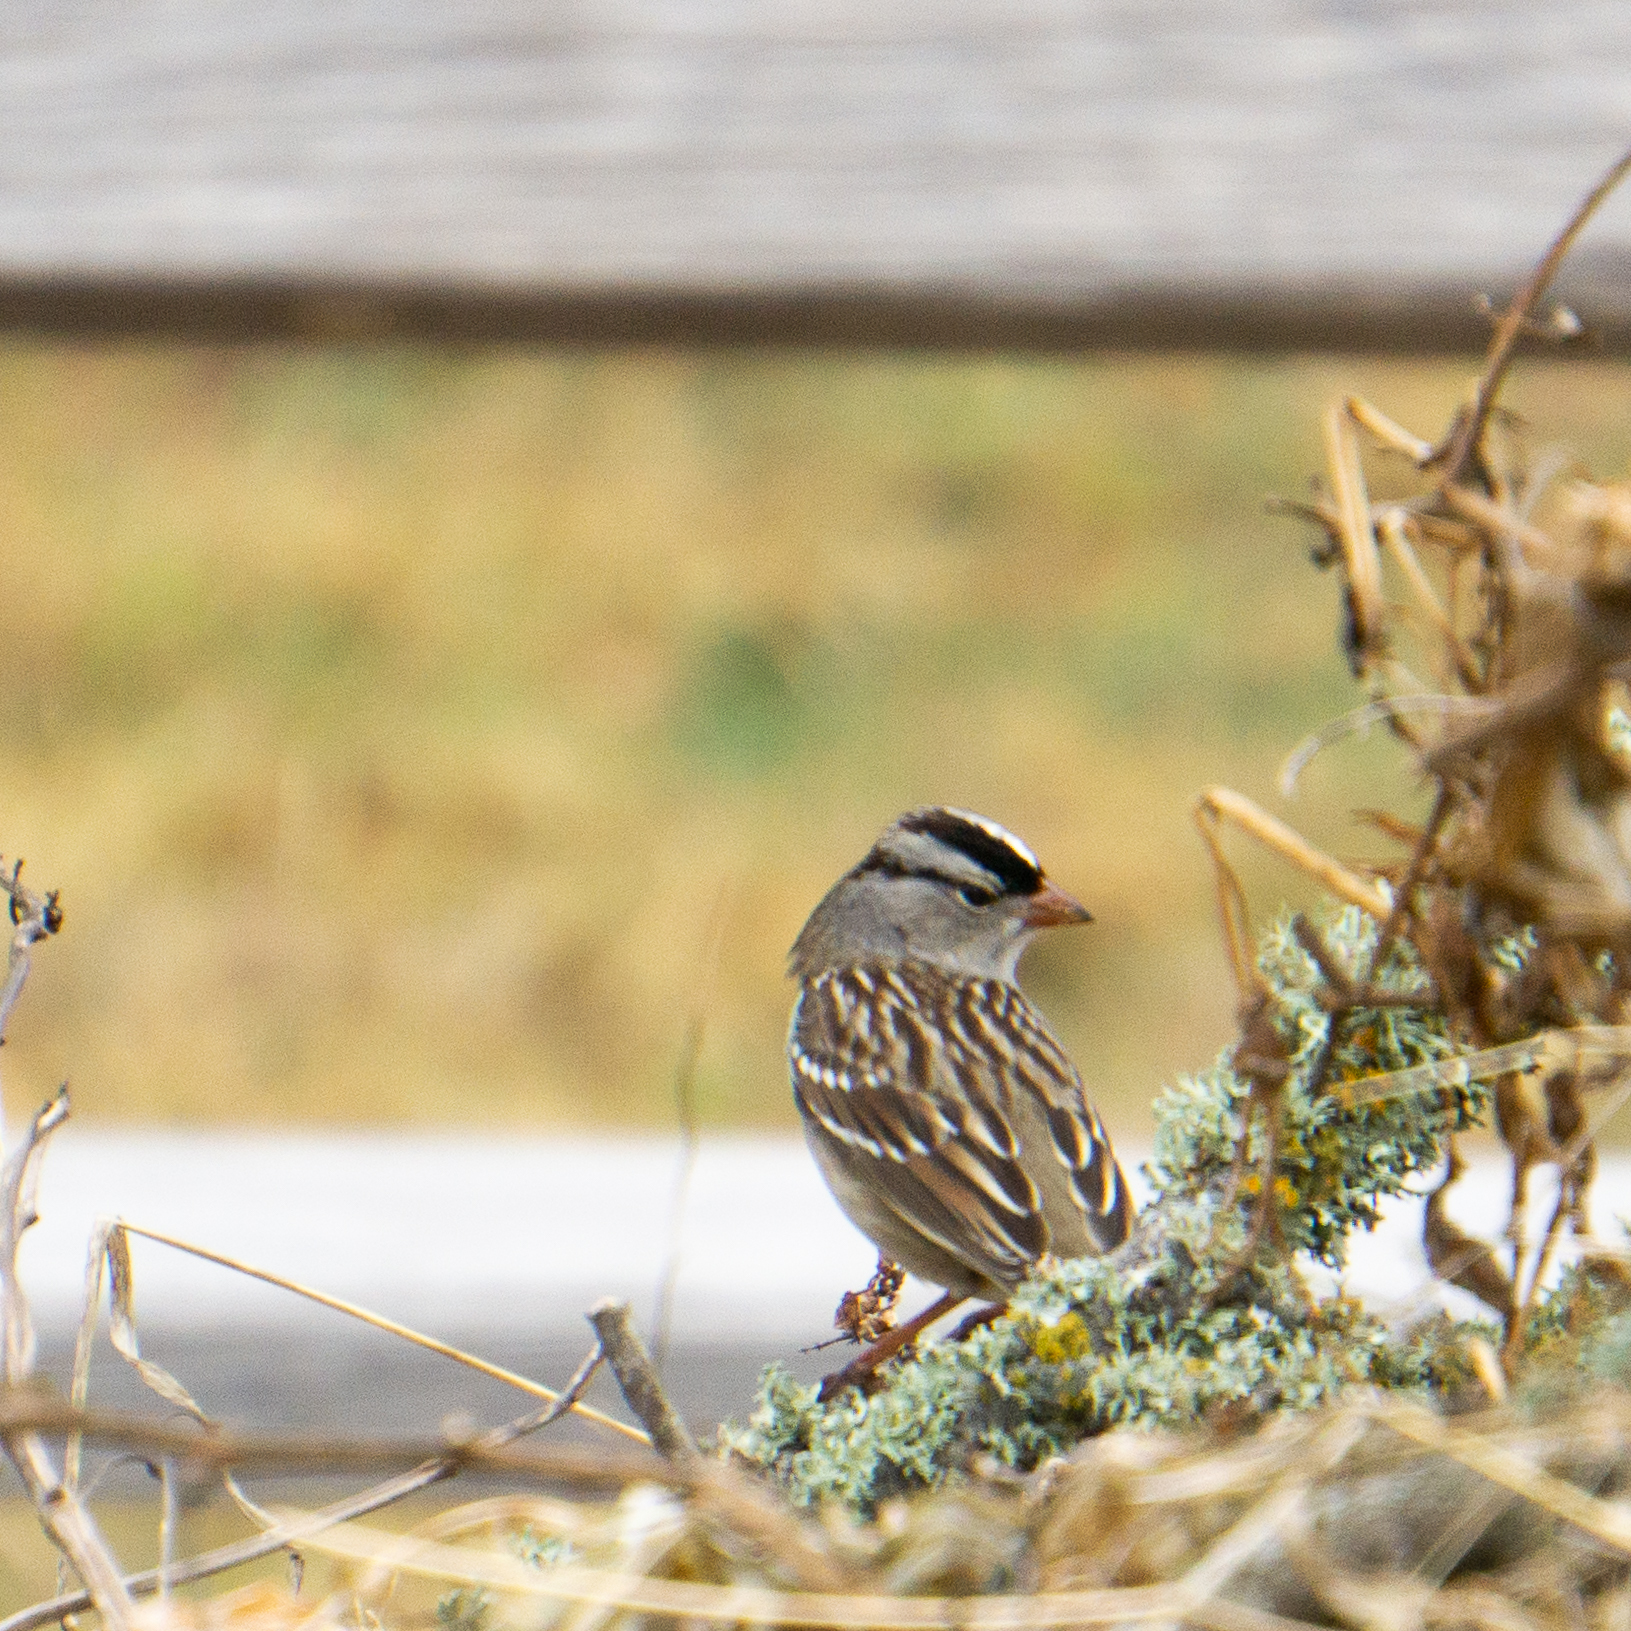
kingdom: Animalia
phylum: Chordata
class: Aves
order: Passeriformes
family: Passerellidae
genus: Zonotrichia
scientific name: Zonotrichia leucophrys
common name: White-crowned sparrow
